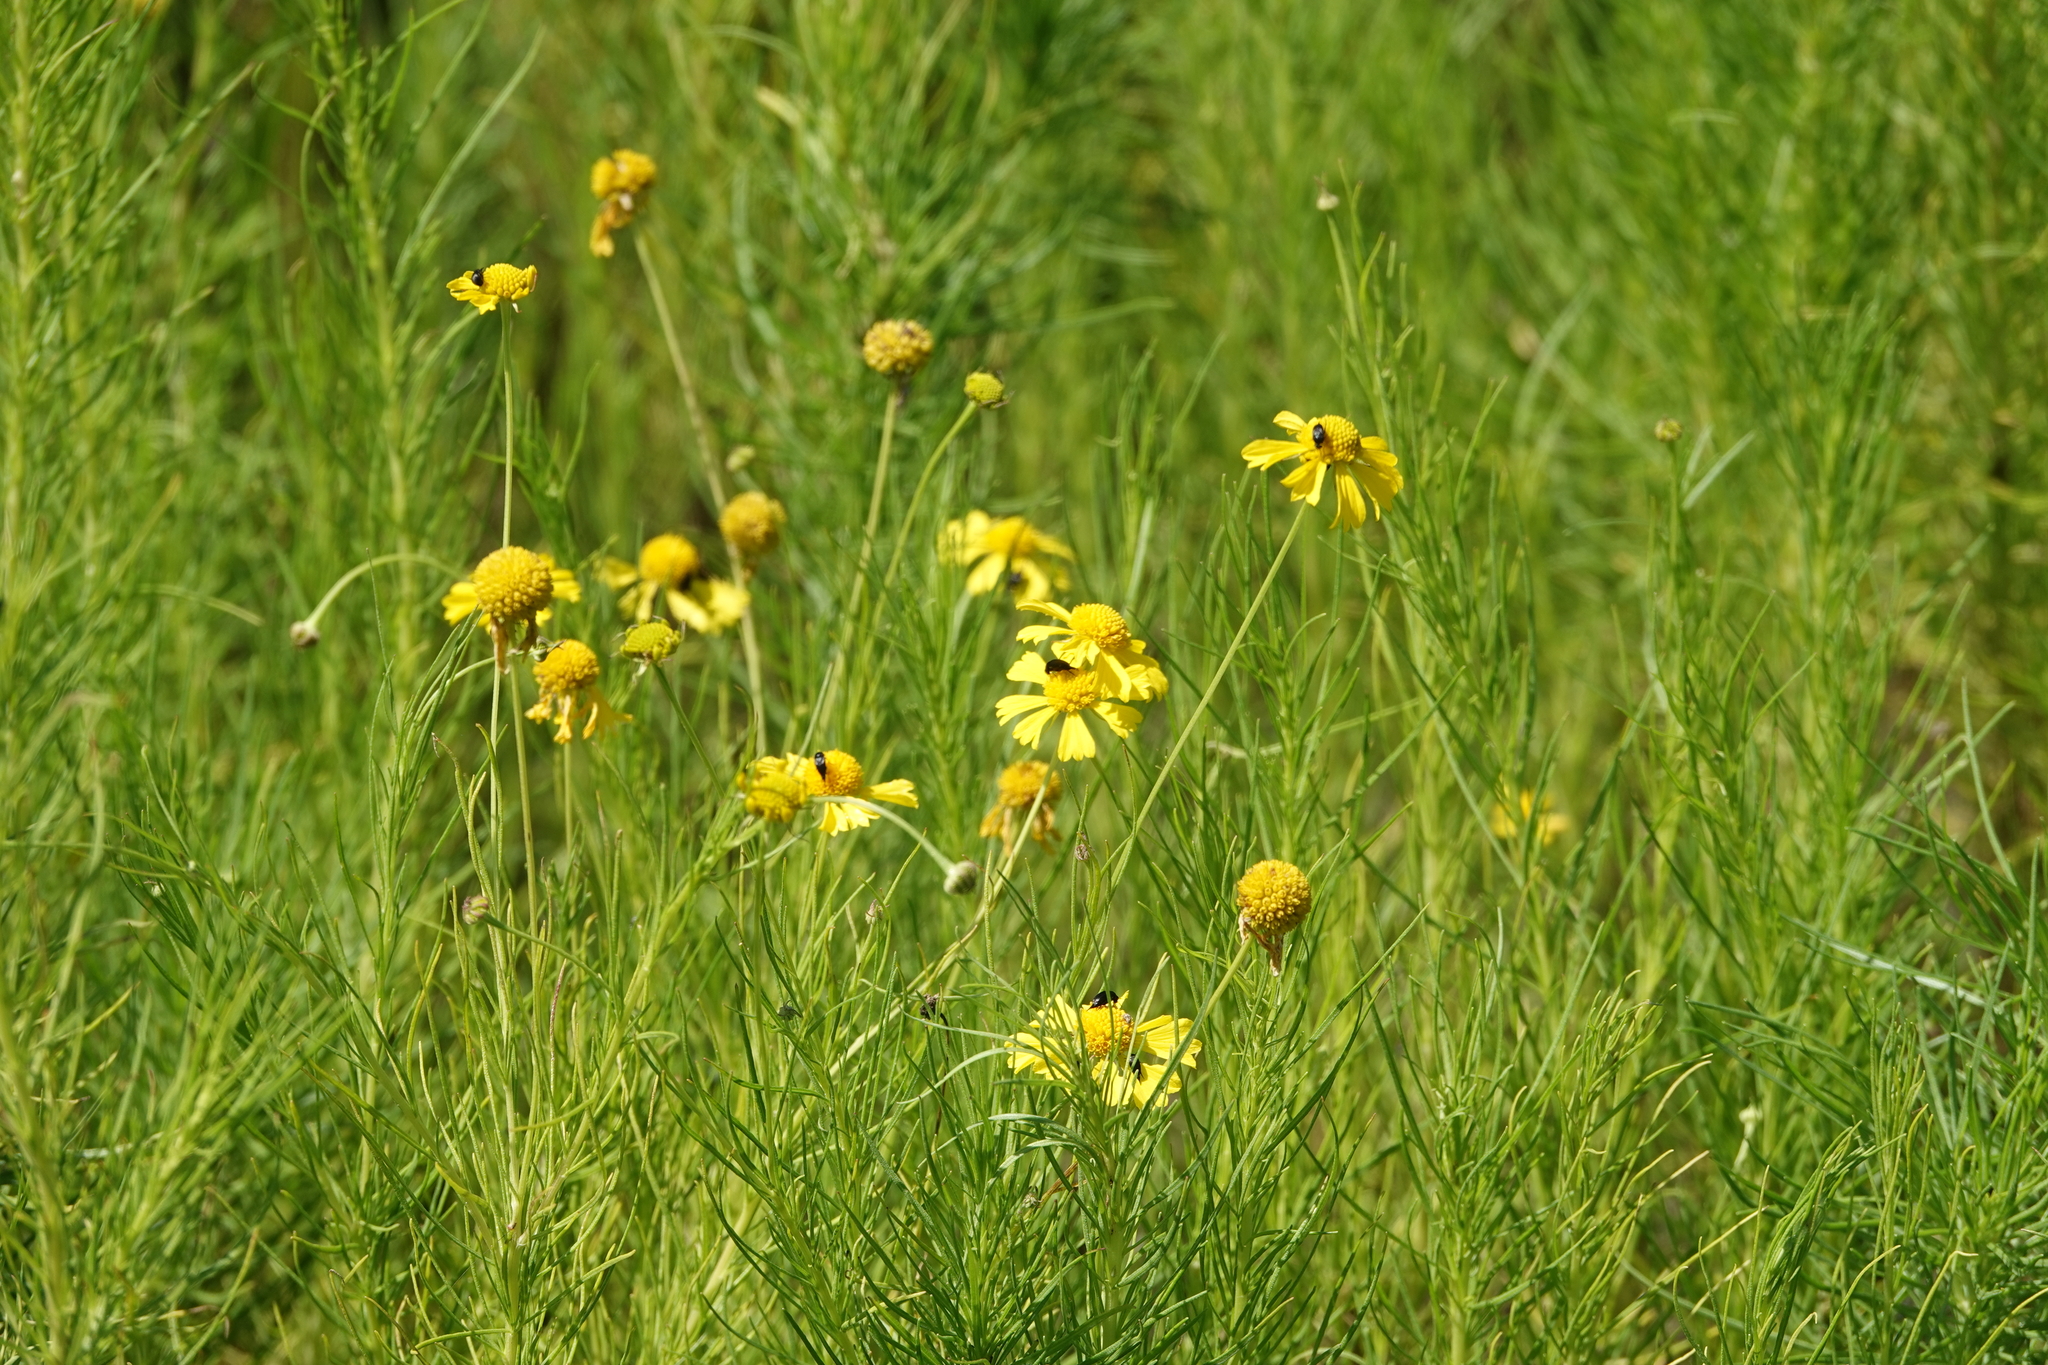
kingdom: Plantae
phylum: Tracheophyta
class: Magnoliopsida
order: Asterales
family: Asteraceae
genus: Helenium
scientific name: Helenium amarum
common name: Bitter sneezeweed
